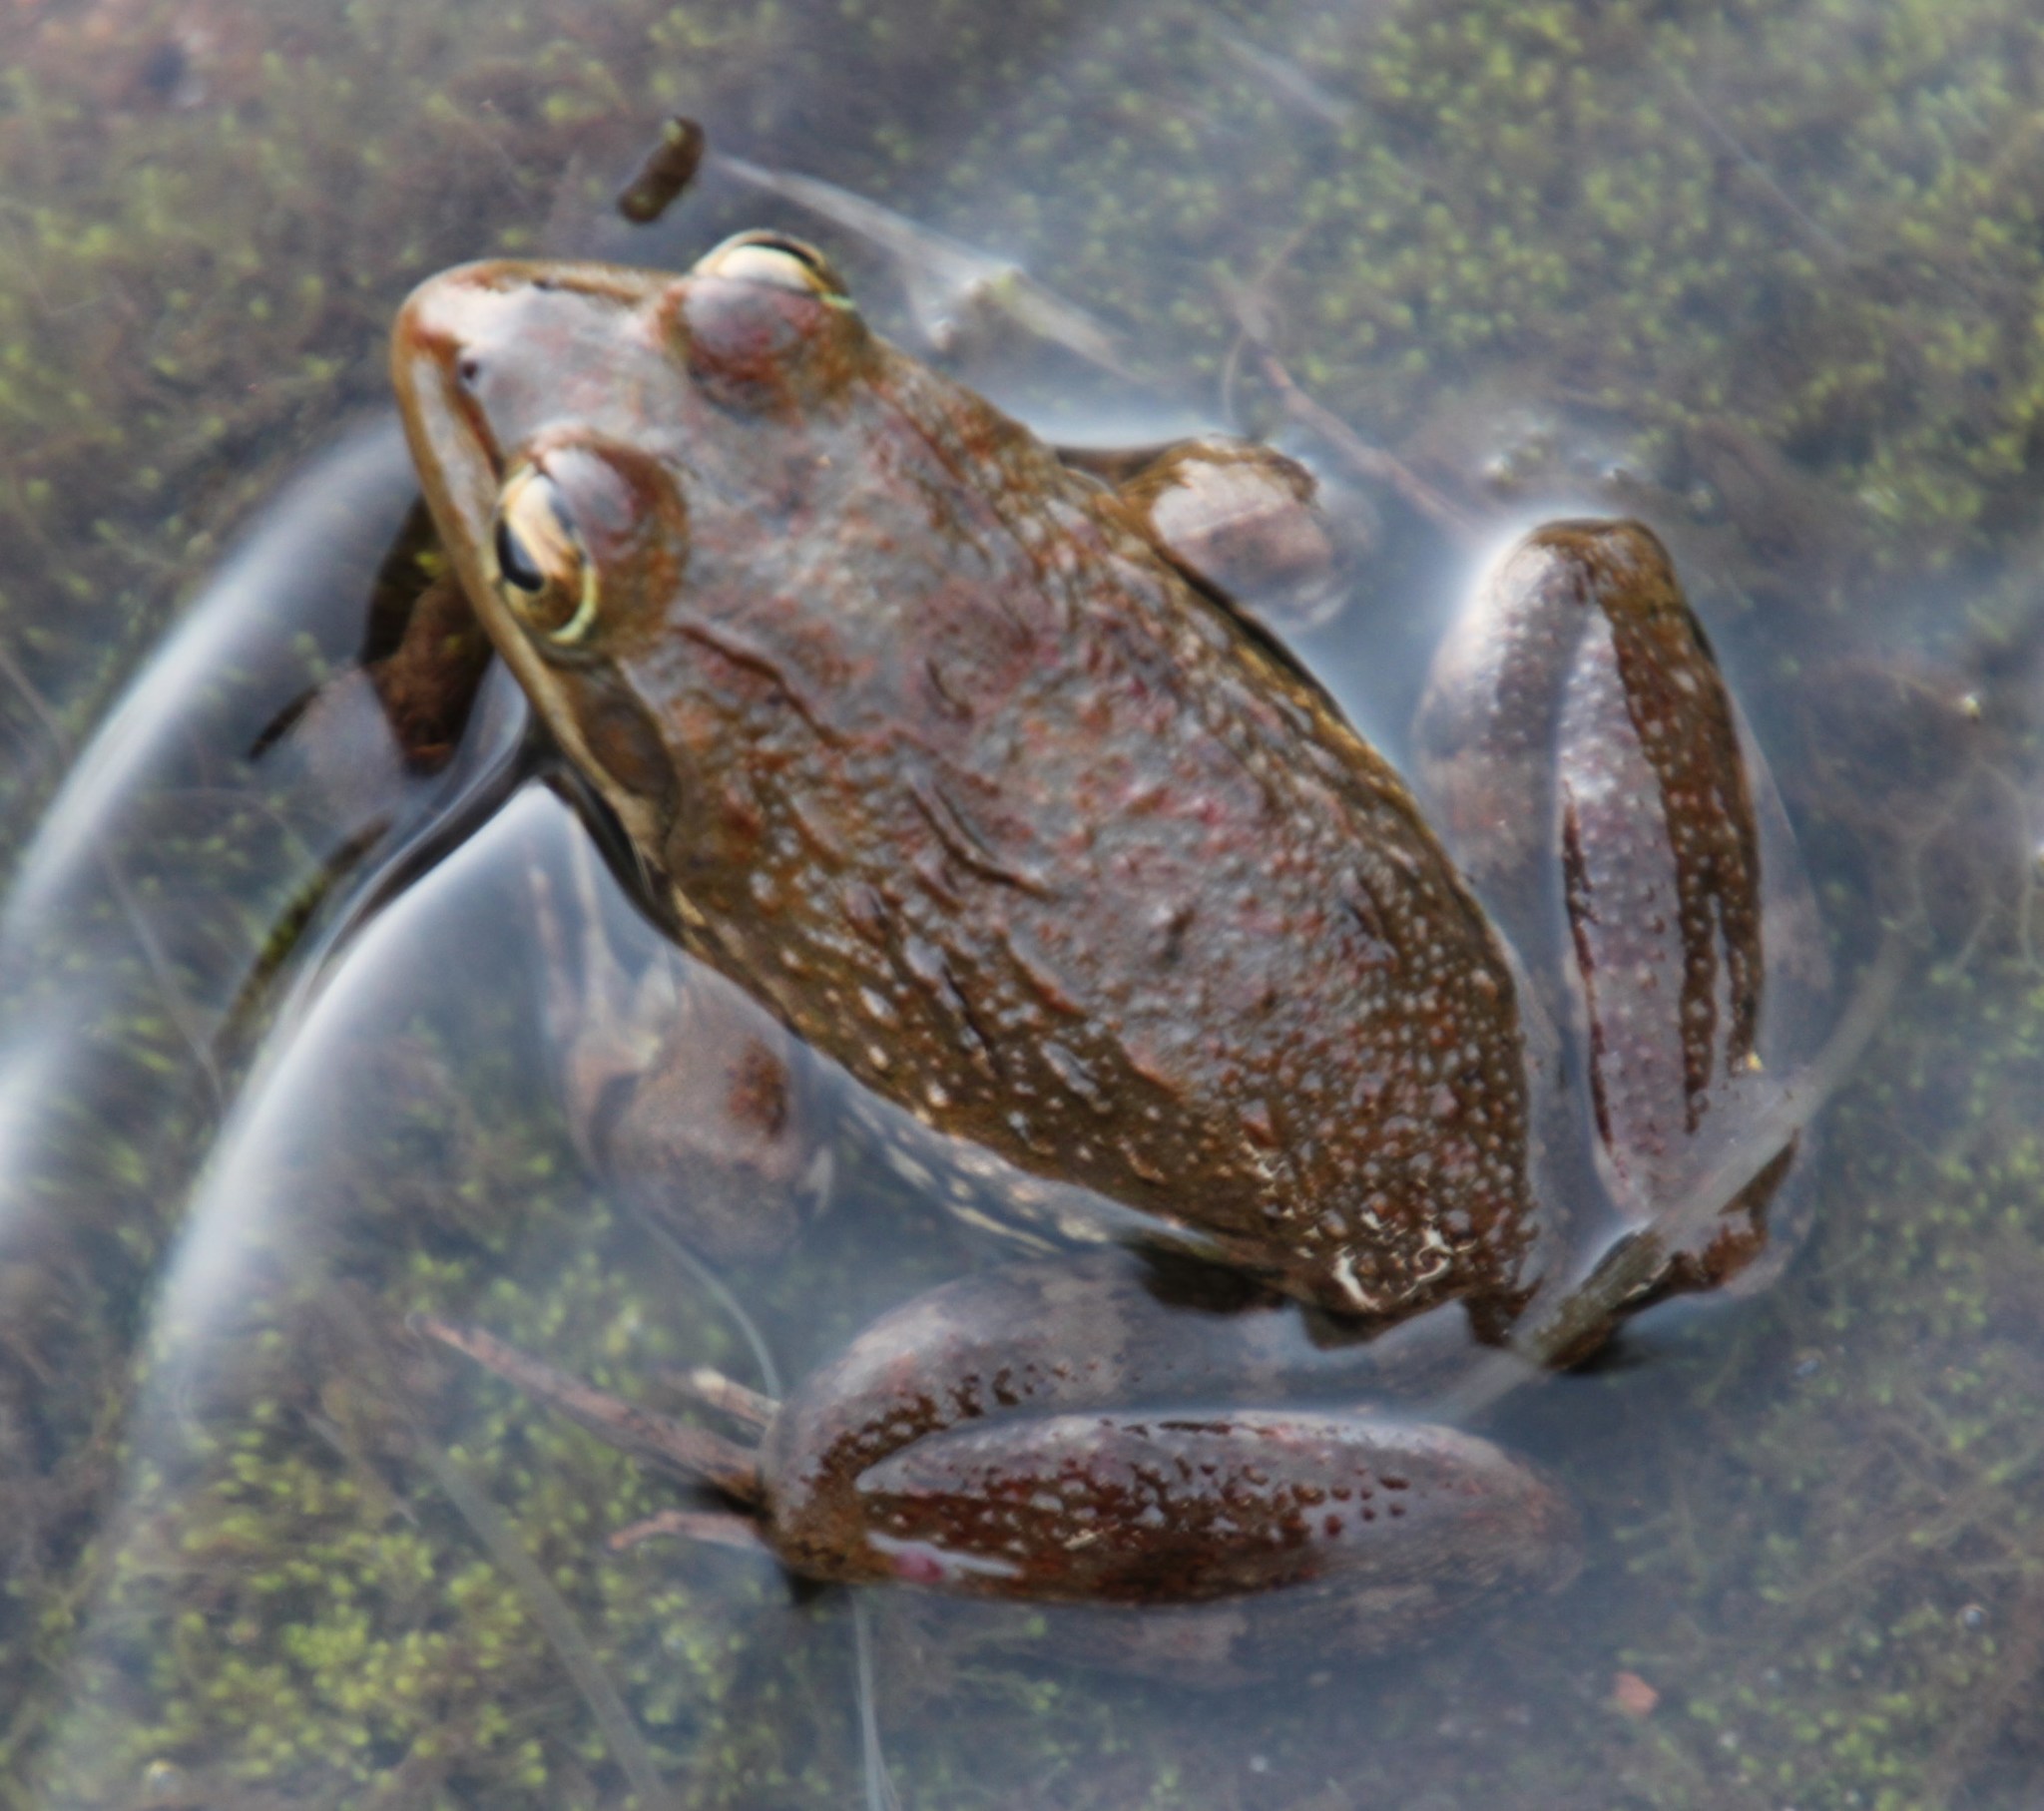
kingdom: Animalia
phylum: Chordata
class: Amphibia
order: Anura
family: Pyxicephalidae
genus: Amietia
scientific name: Amietia fuscigula
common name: Cape rana
